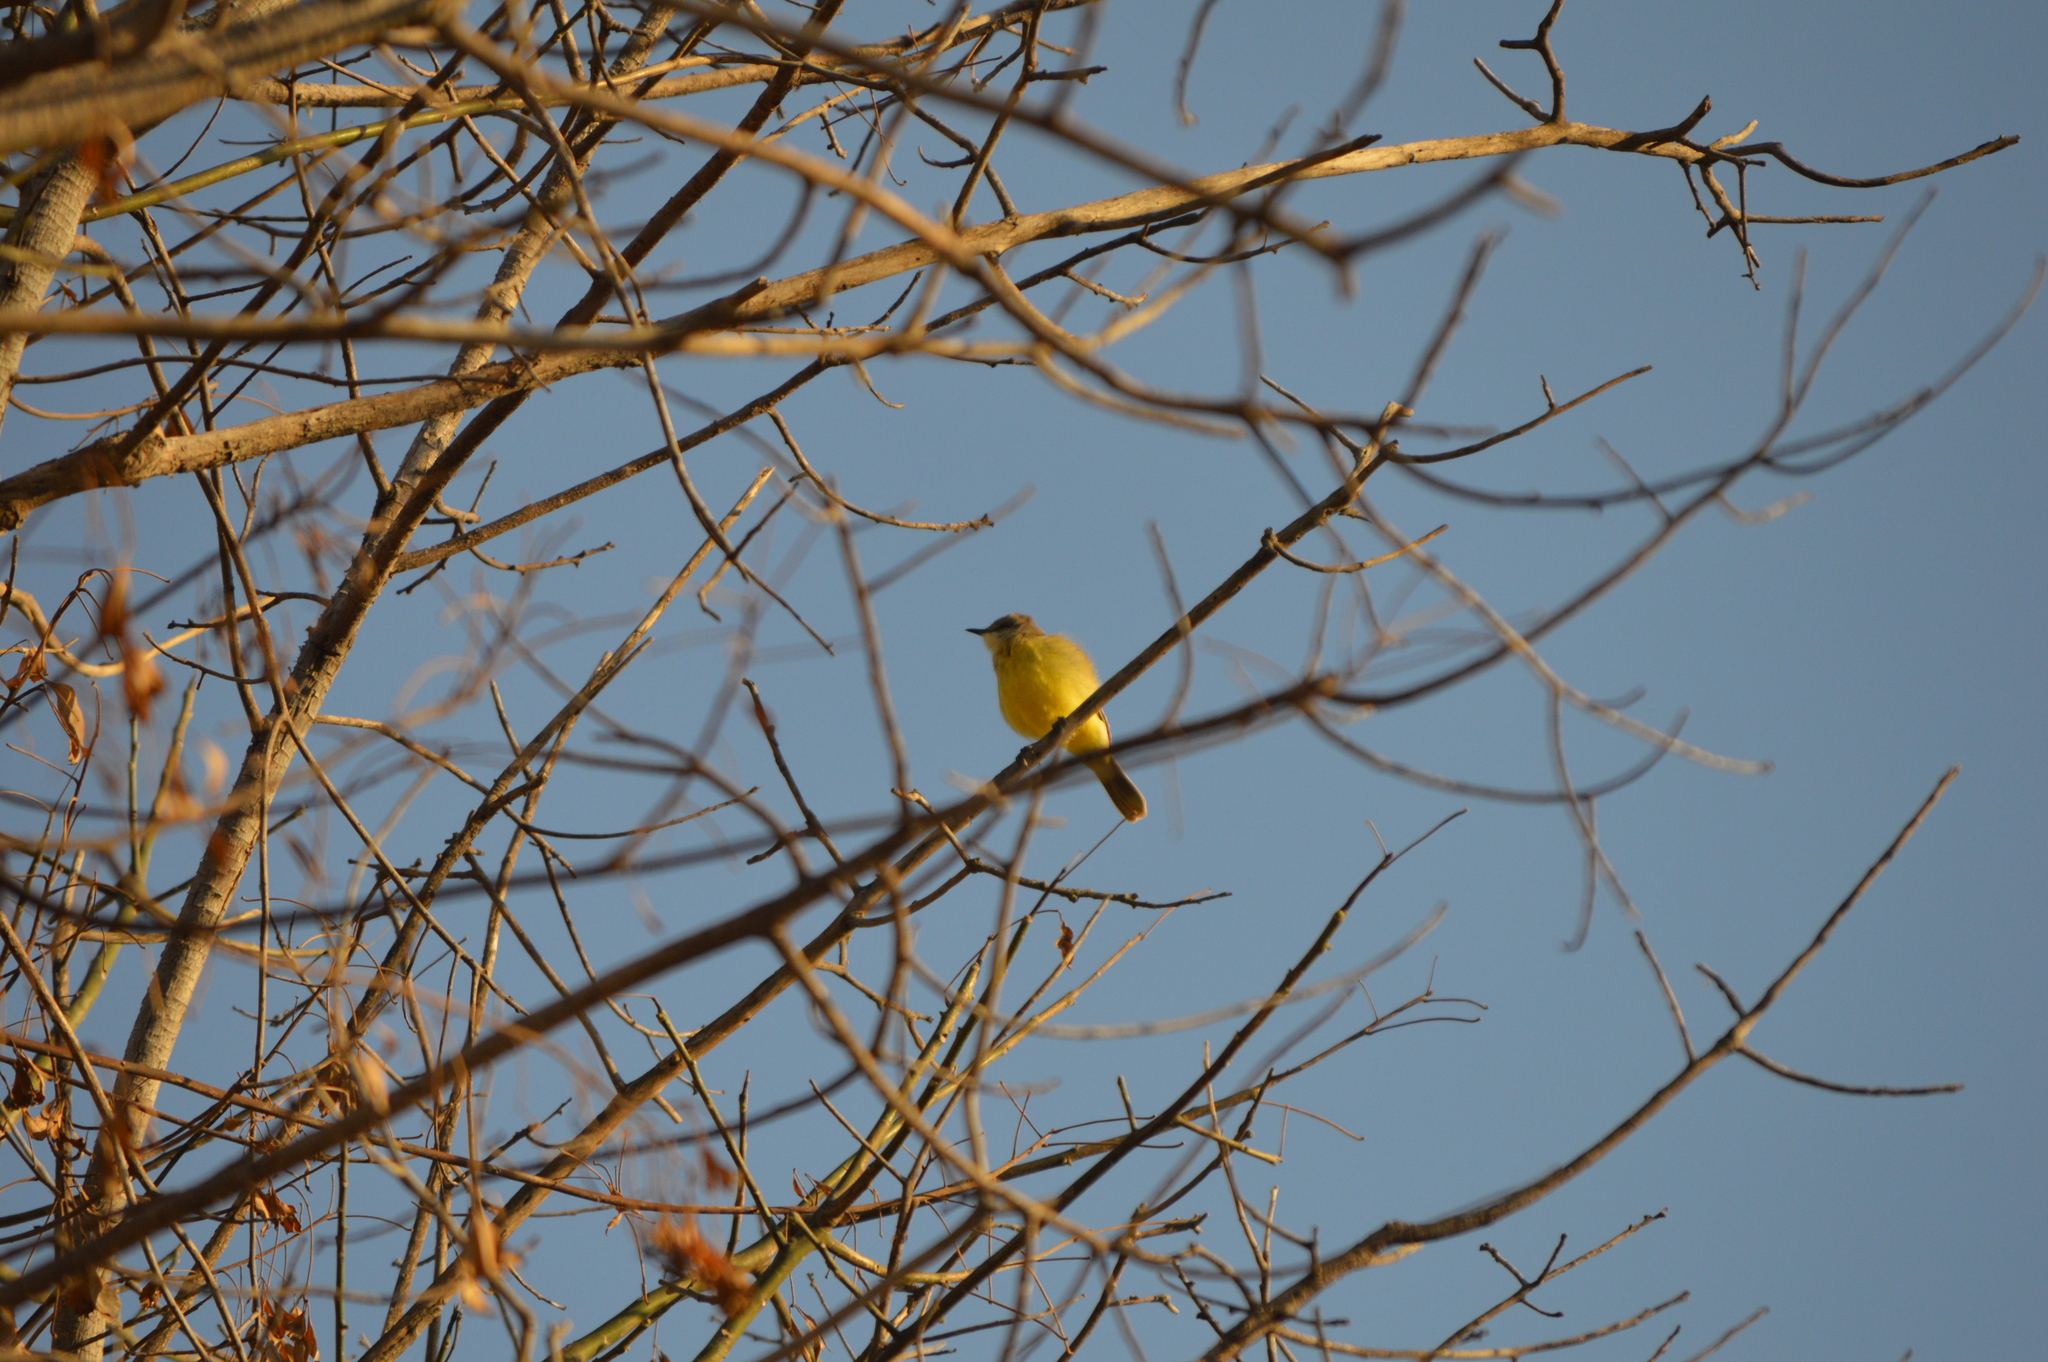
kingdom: Animalia
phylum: Chordata
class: Aves
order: Passeriformes
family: Tyrannidae
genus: Machetornis
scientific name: Machetornis rixosa
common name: Cattle tyrant
